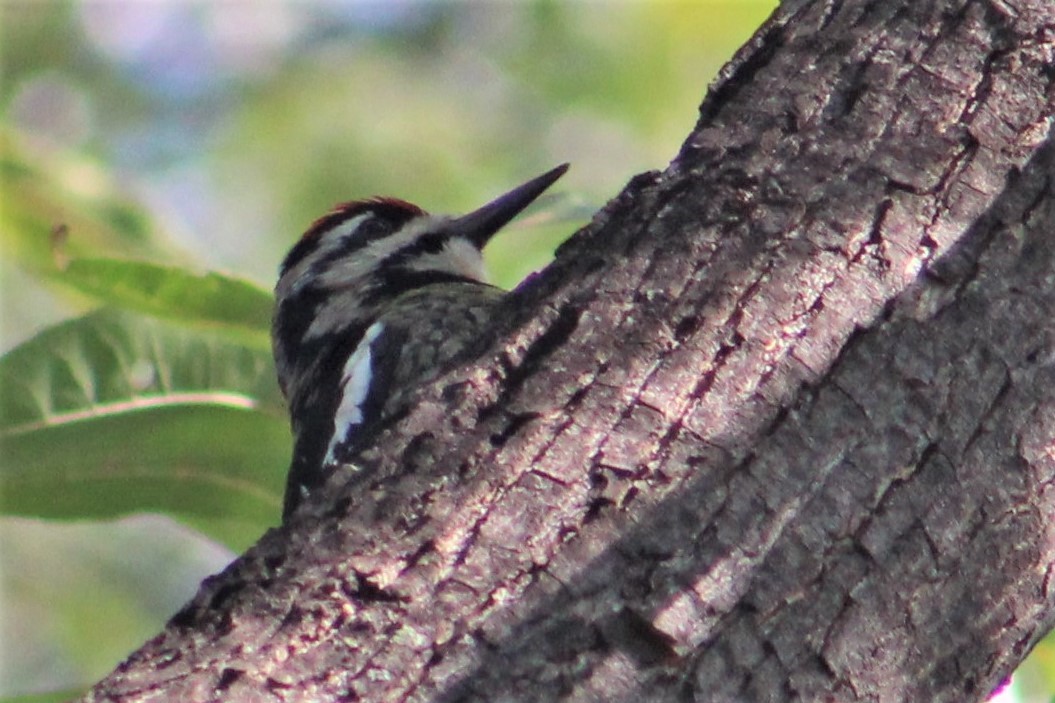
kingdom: Animalia
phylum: Chordata
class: Aves
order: Piciformes
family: Picidae
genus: Sphyrapicus
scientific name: Sphyrapicus varius
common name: Yellow-bellied sapsucker
